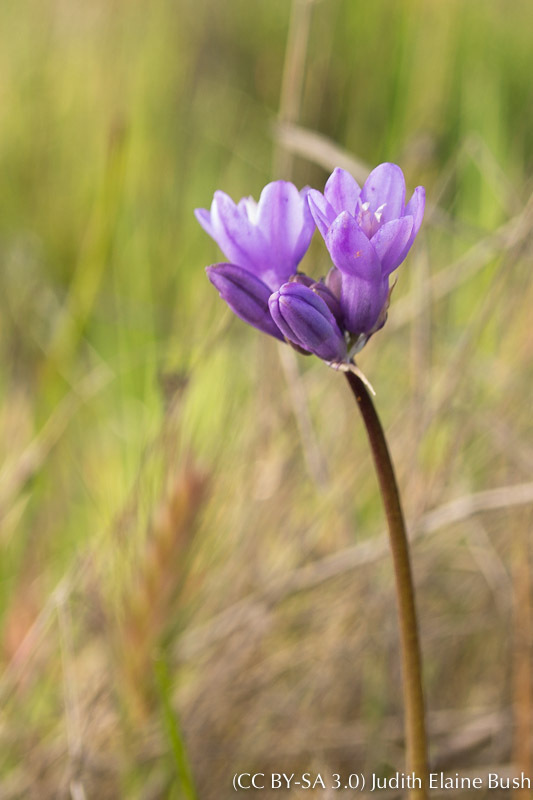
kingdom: Plantae
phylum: Tracheophyta
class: Liliopsida
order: Asparagales
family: Asparagaceae
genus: Dipterostemon
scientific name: Dipterostemon capitatus
